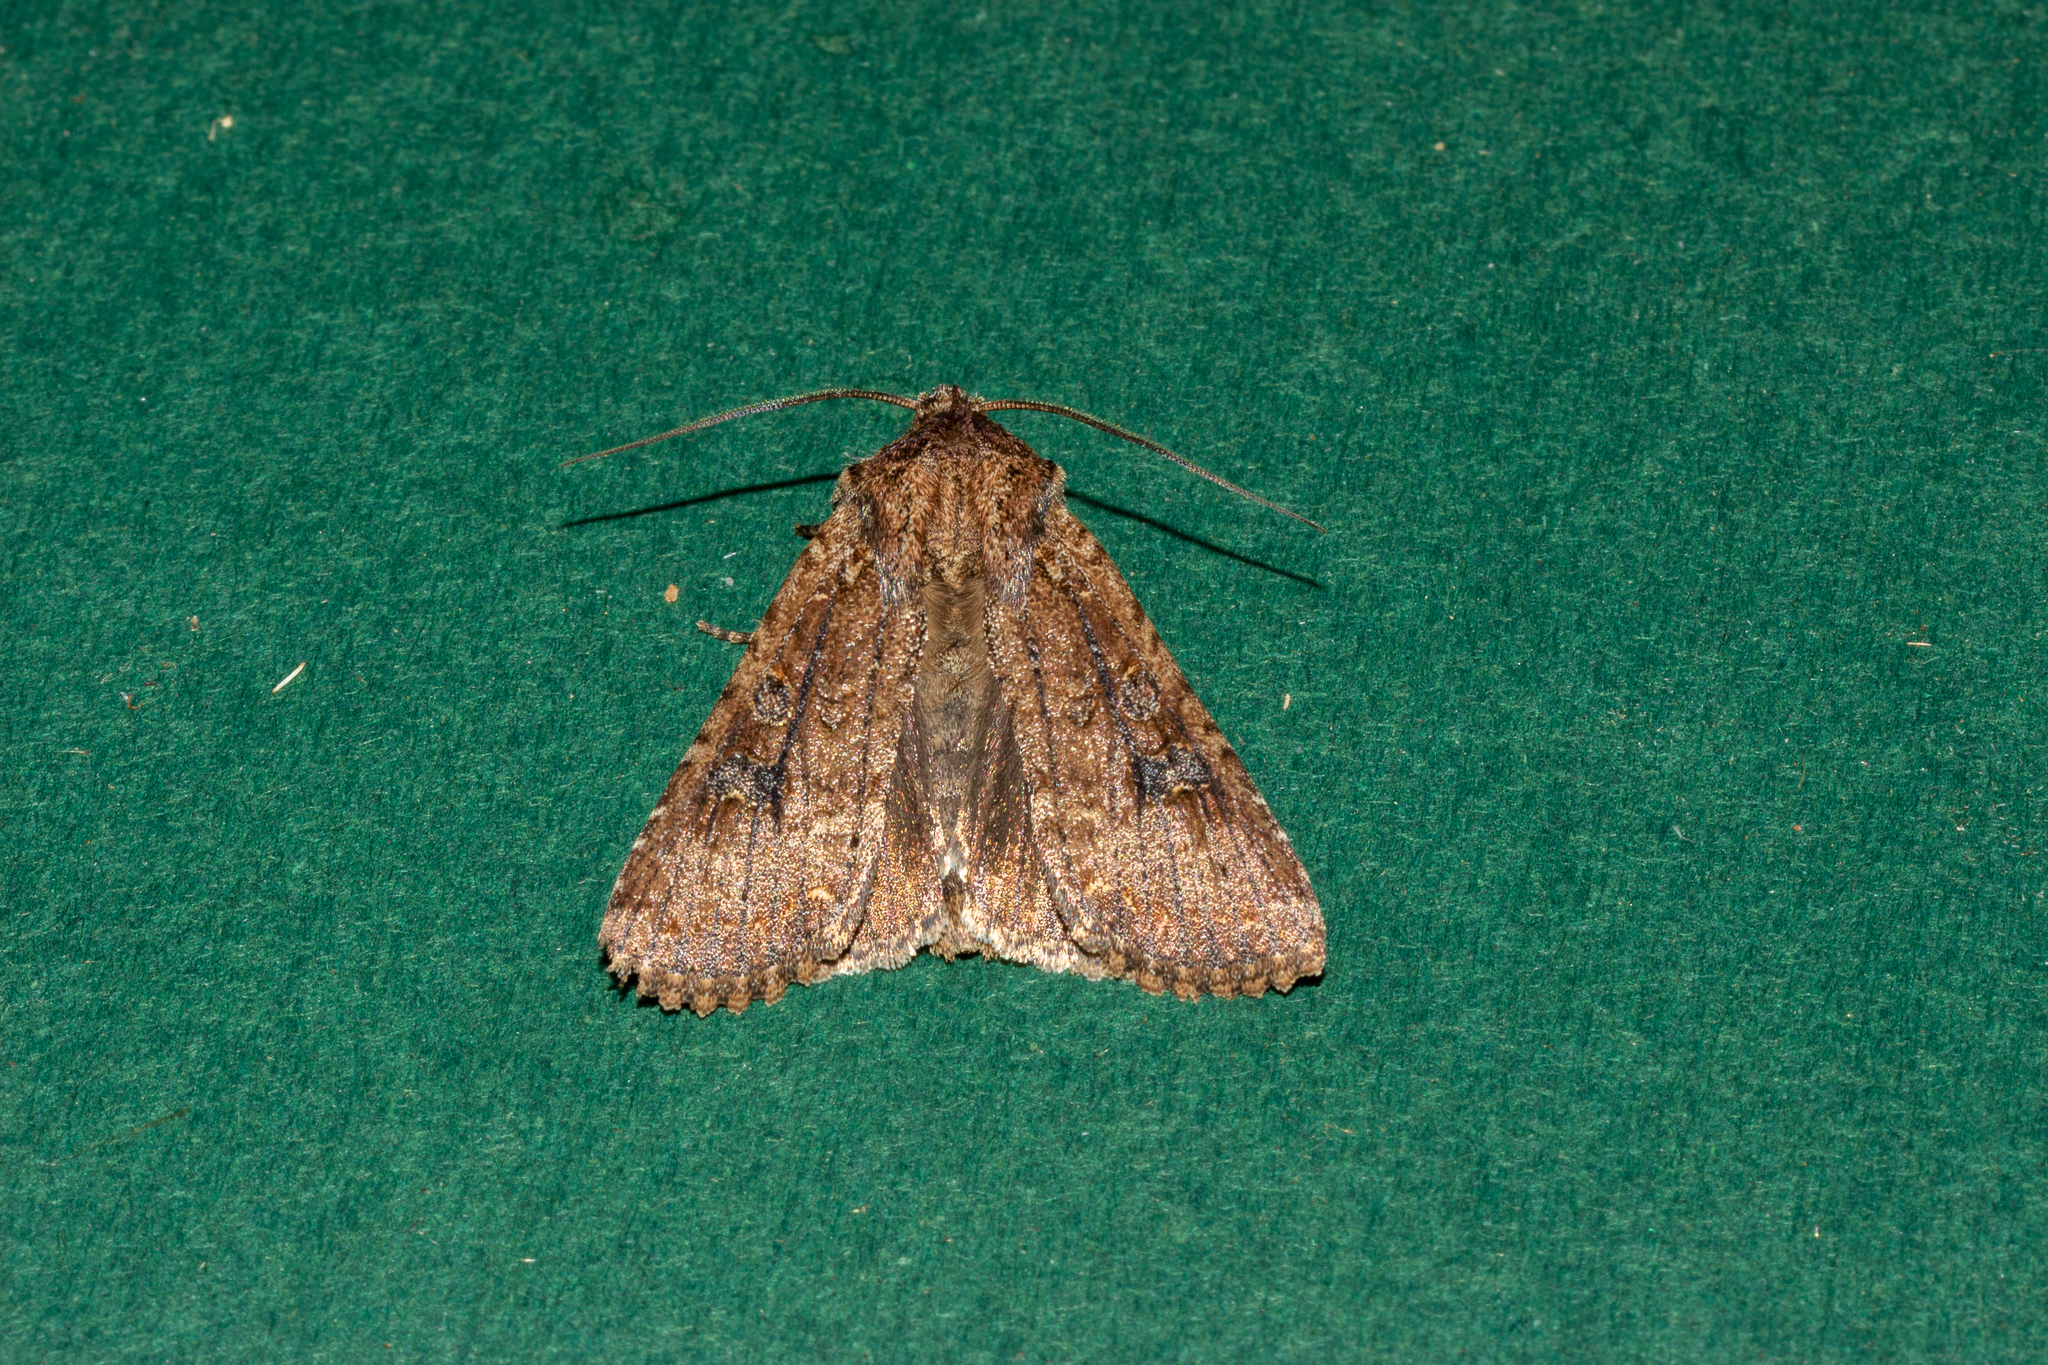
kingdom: Animalia
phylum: Arthropoda
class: Insecta
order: Lepidoptera
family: Noctuidae
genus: Ichneutica
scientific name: Ichneutica morosa
